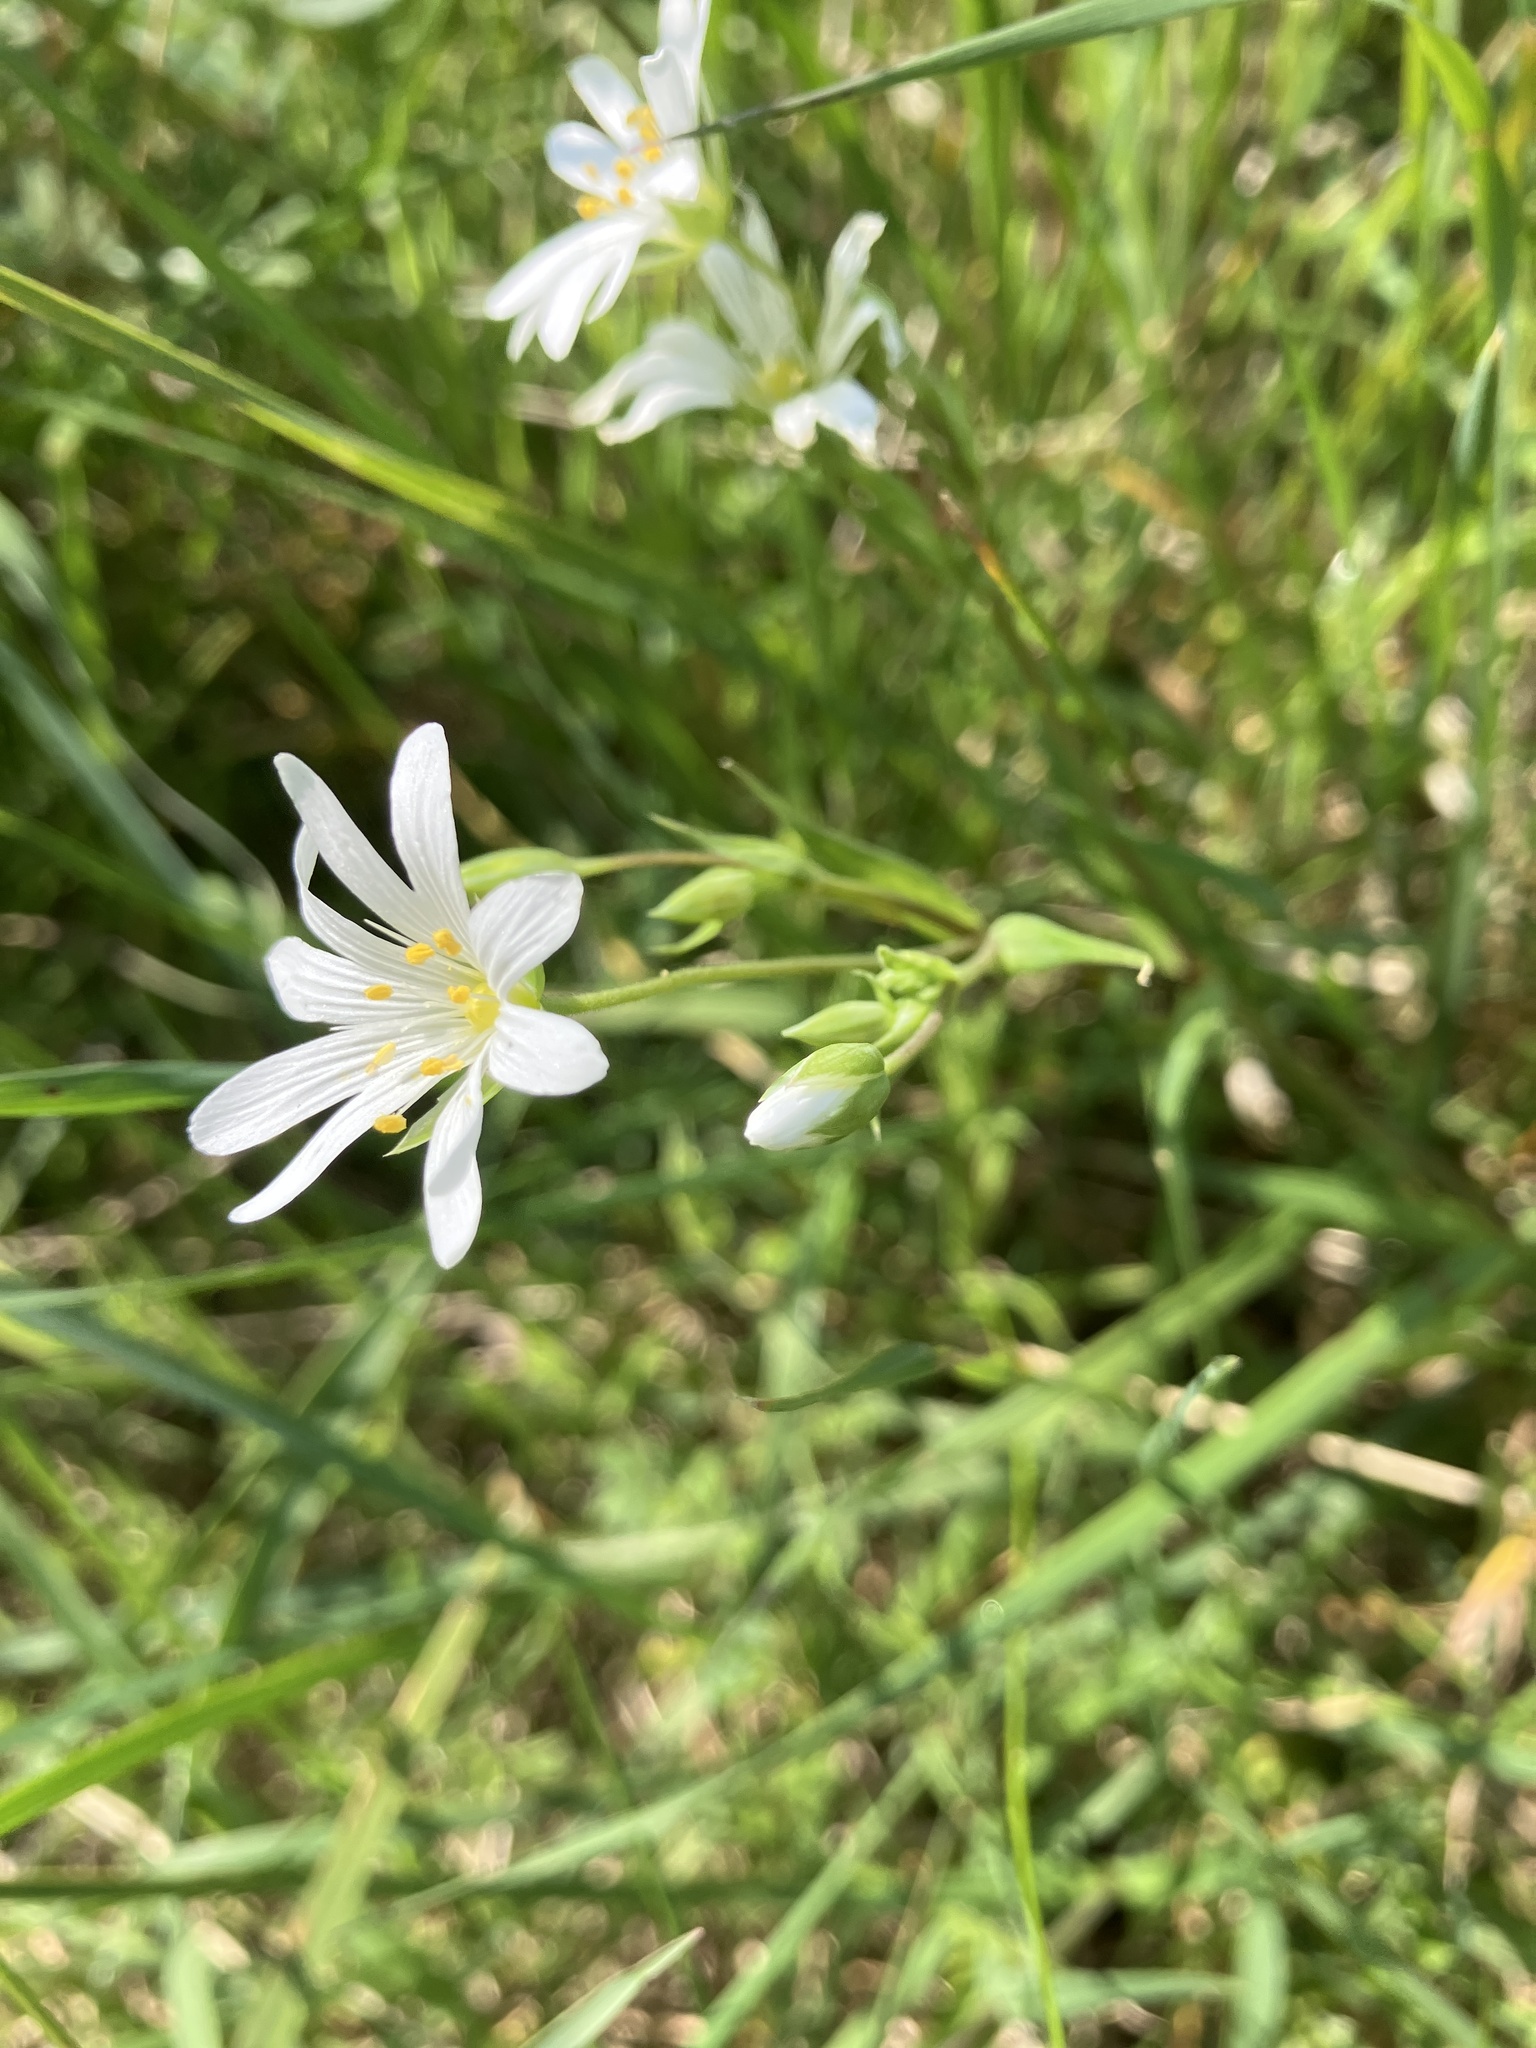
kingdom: Plantae
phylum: Tracheophyta
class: Magnoliopsida
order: Caryophyllales
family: Caryophyllaceae
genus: Rabelera
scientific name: Rabelera holostea
